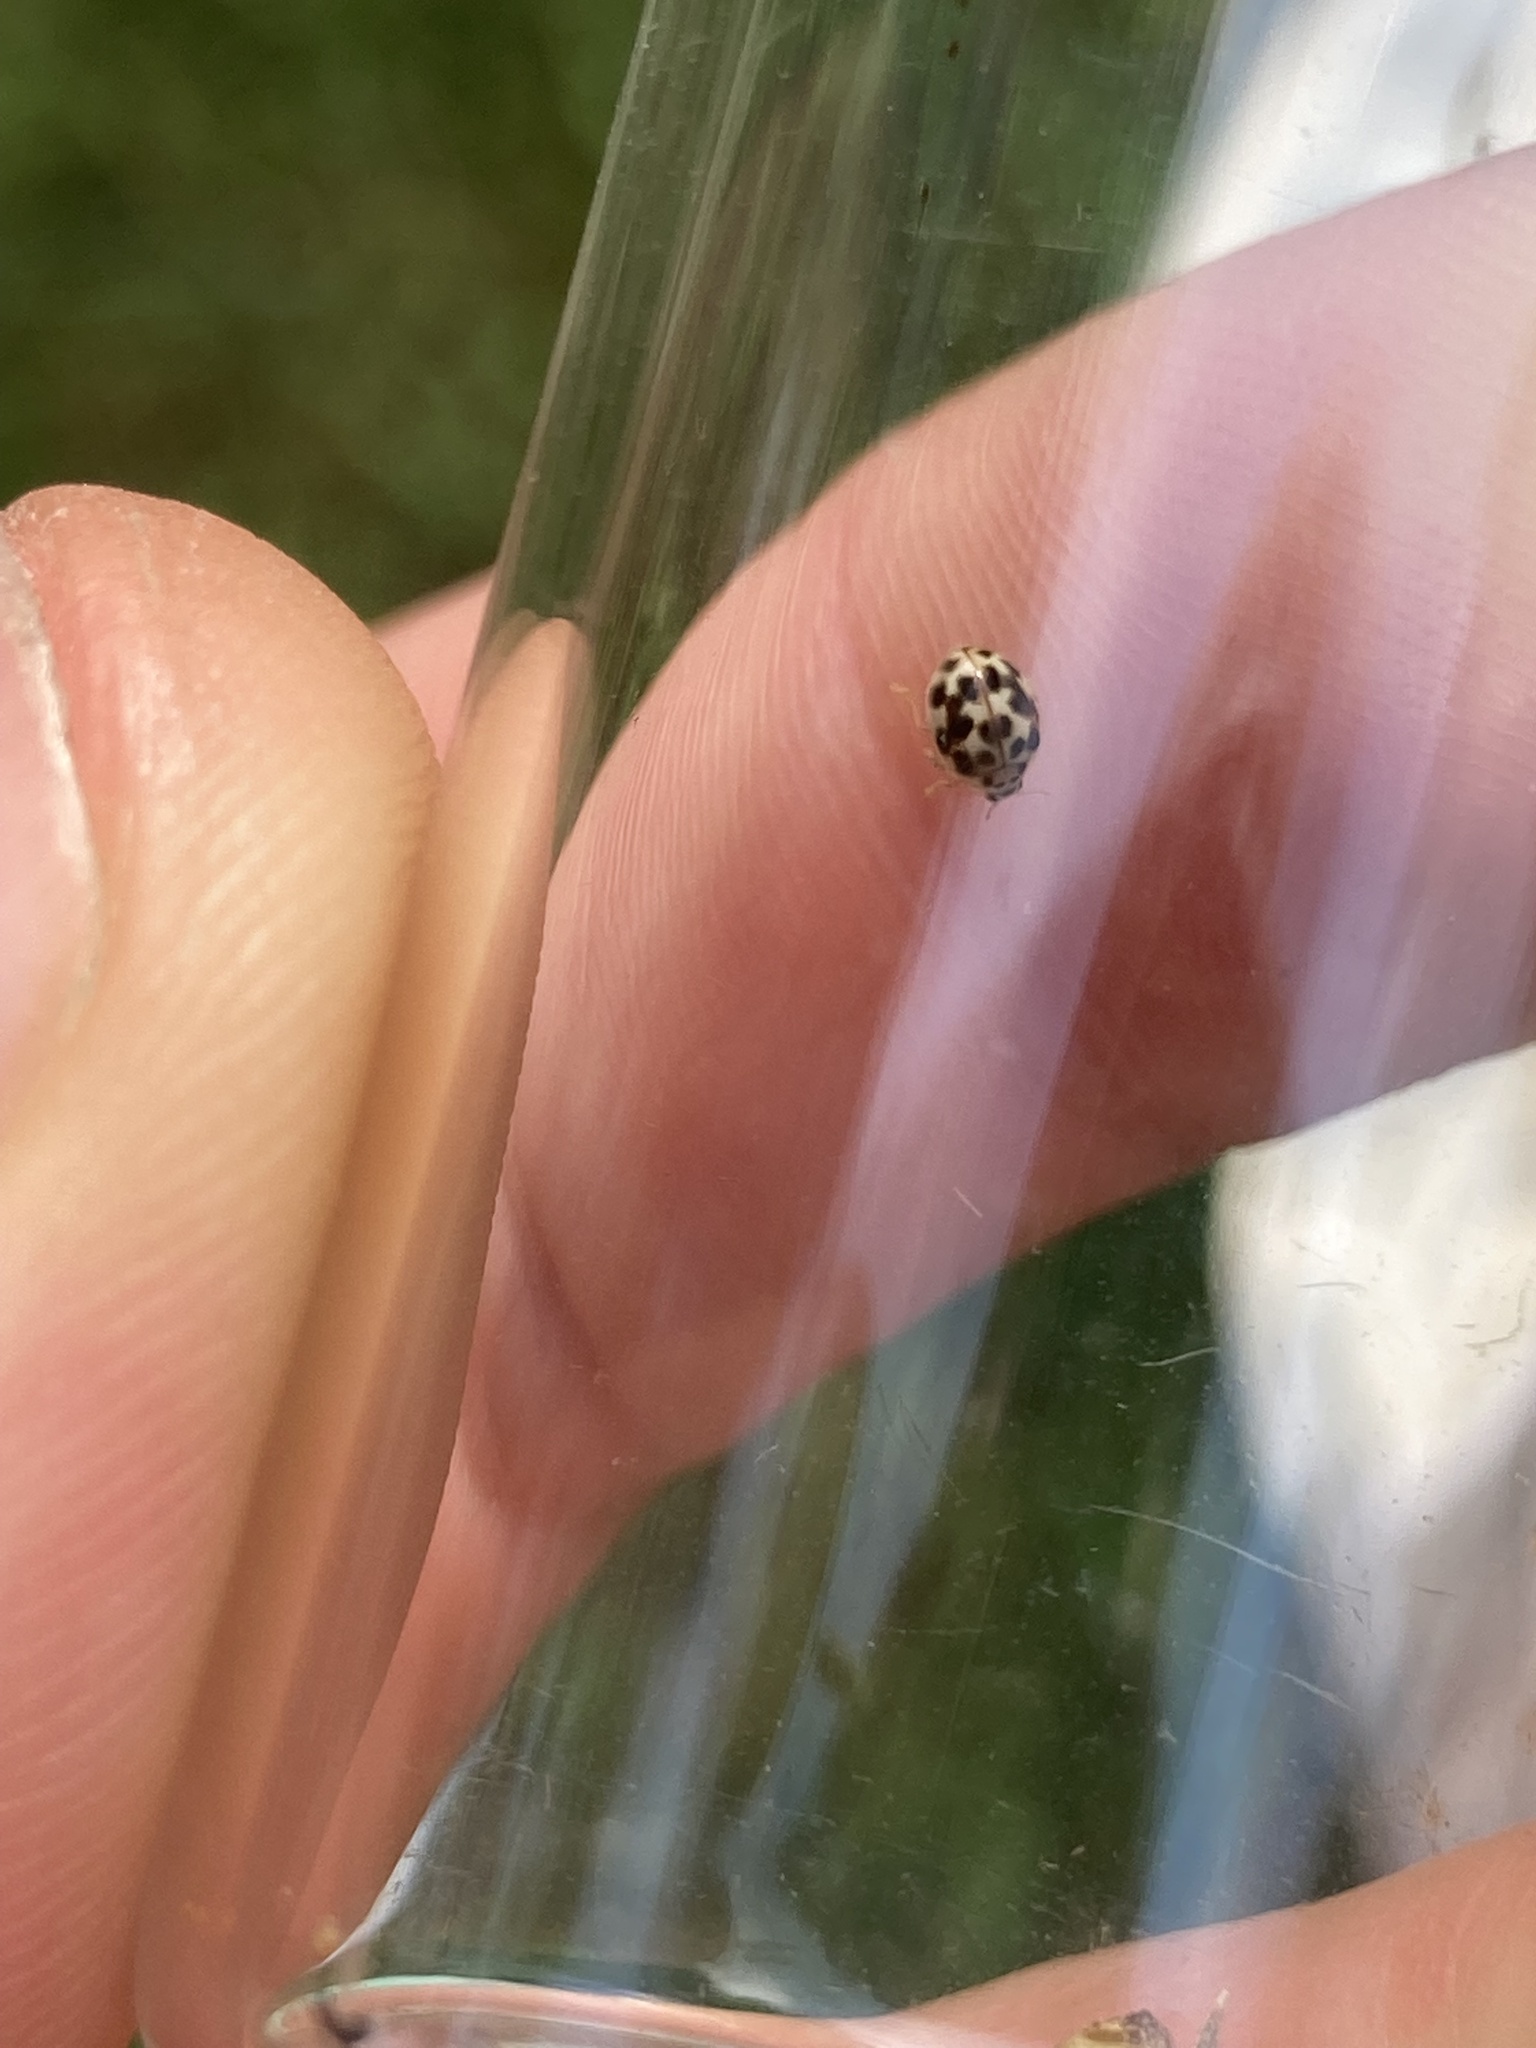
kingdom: Animalia
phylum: Arthropoda
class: Insecta
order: Coleoptera
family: Coccinellidae
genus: Psyllobora
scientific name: Psyllobora vigintimaculata
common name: Ladybird beetle
